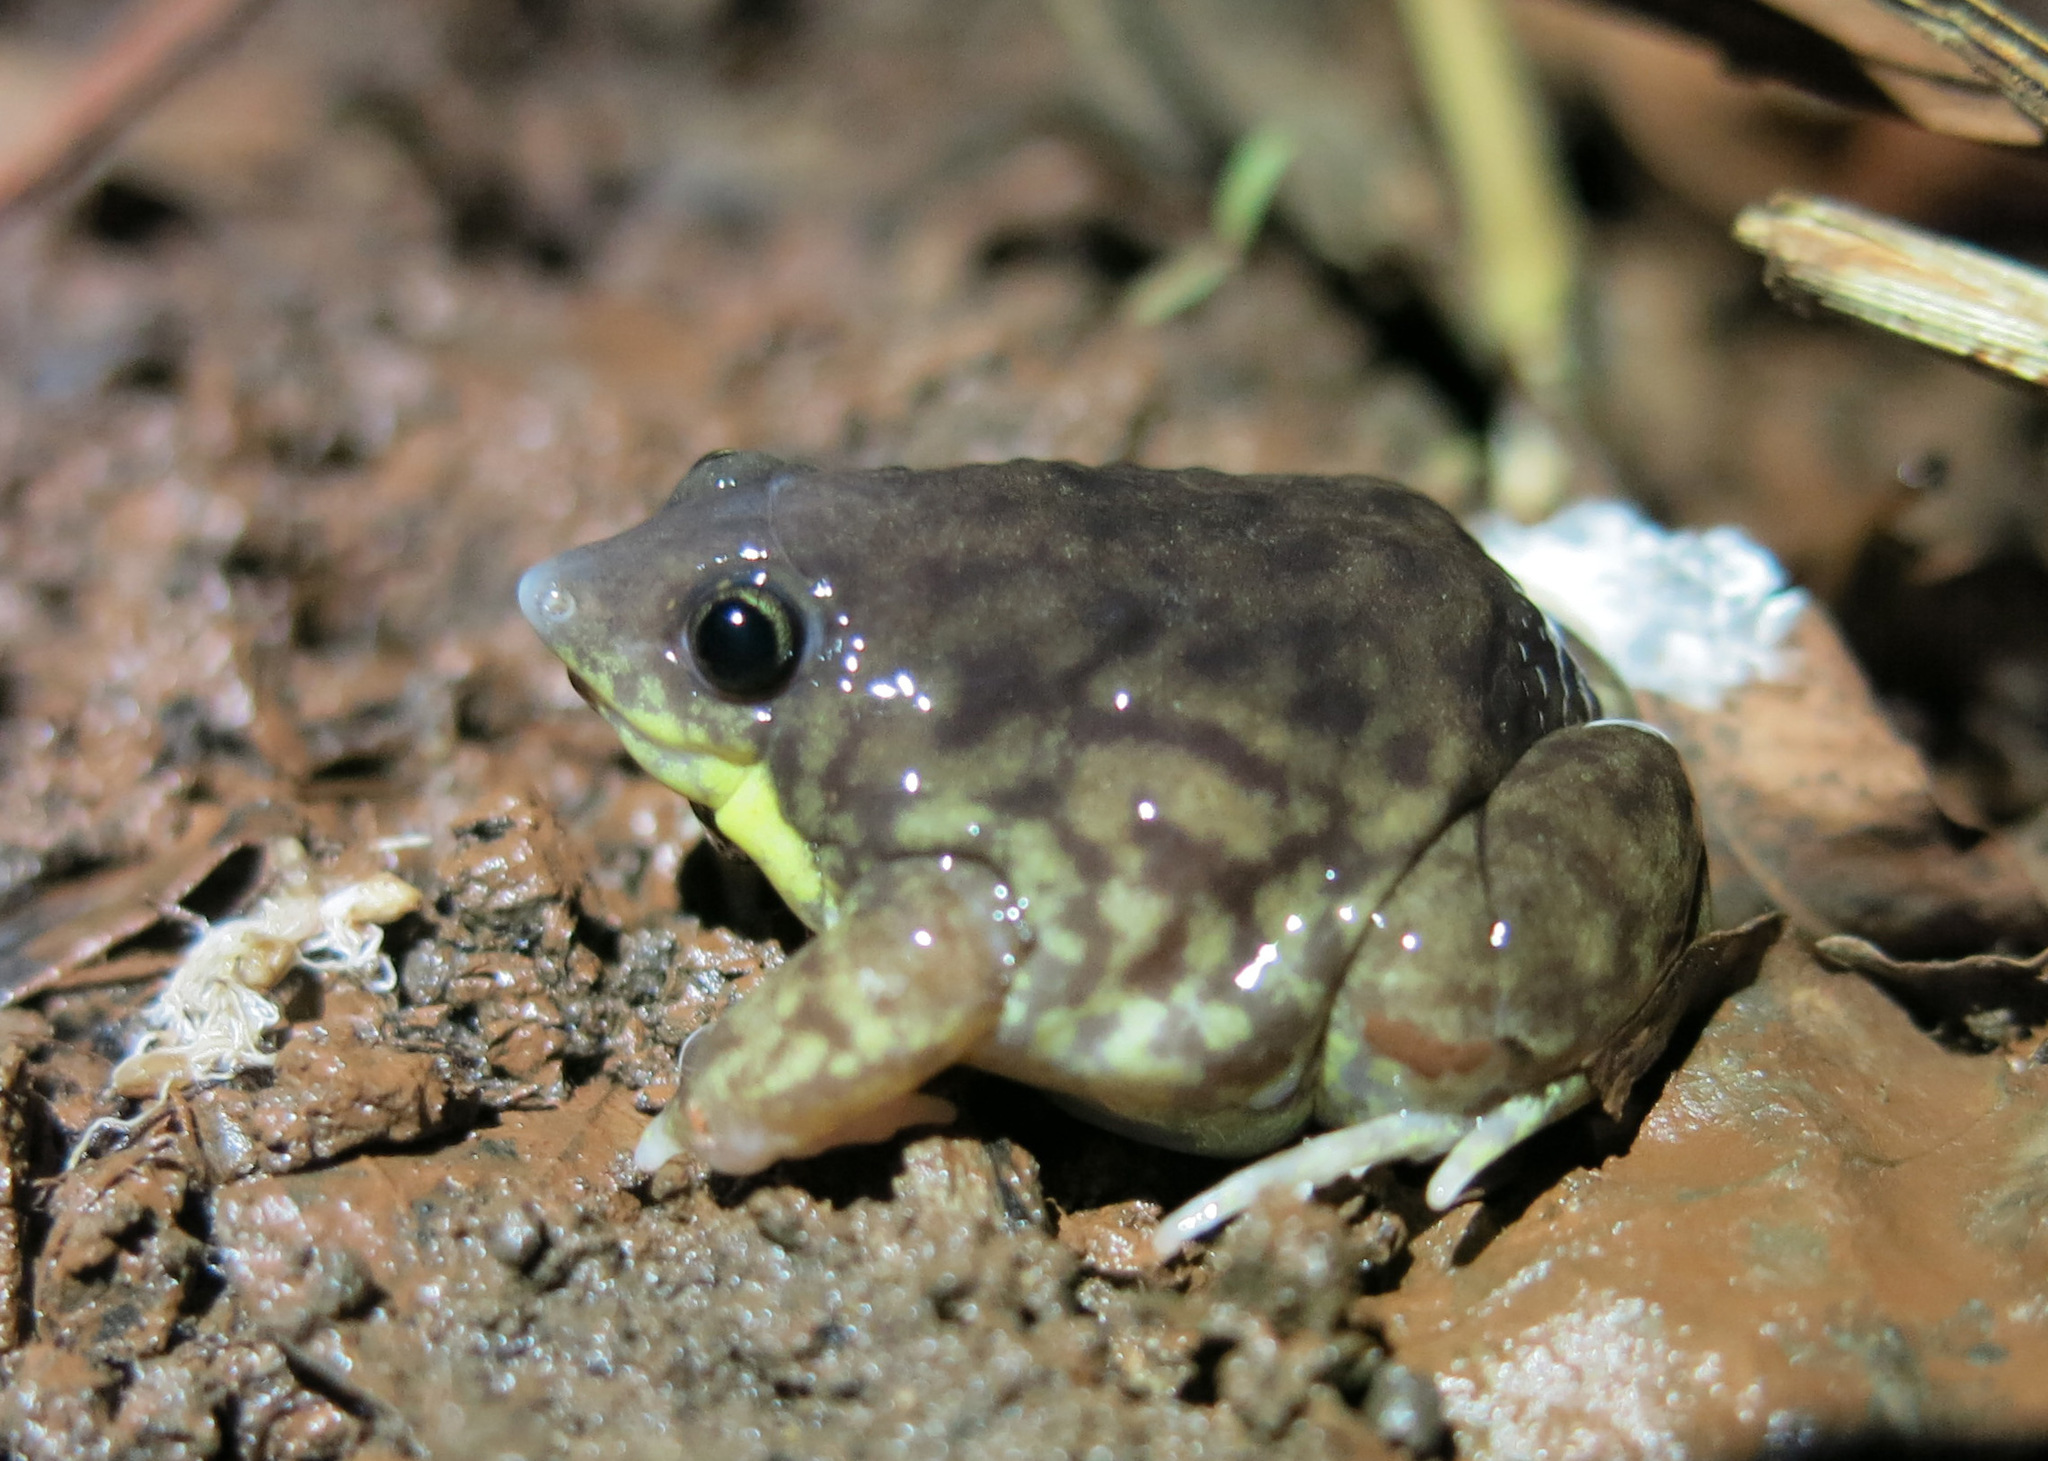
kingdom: Animalia
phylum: Chordata
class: Amphibia
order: Anura
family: Hemisotidae
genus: Hemisus
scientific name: Hemisus marmoratus
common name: Mottled shovel-nosed frog
